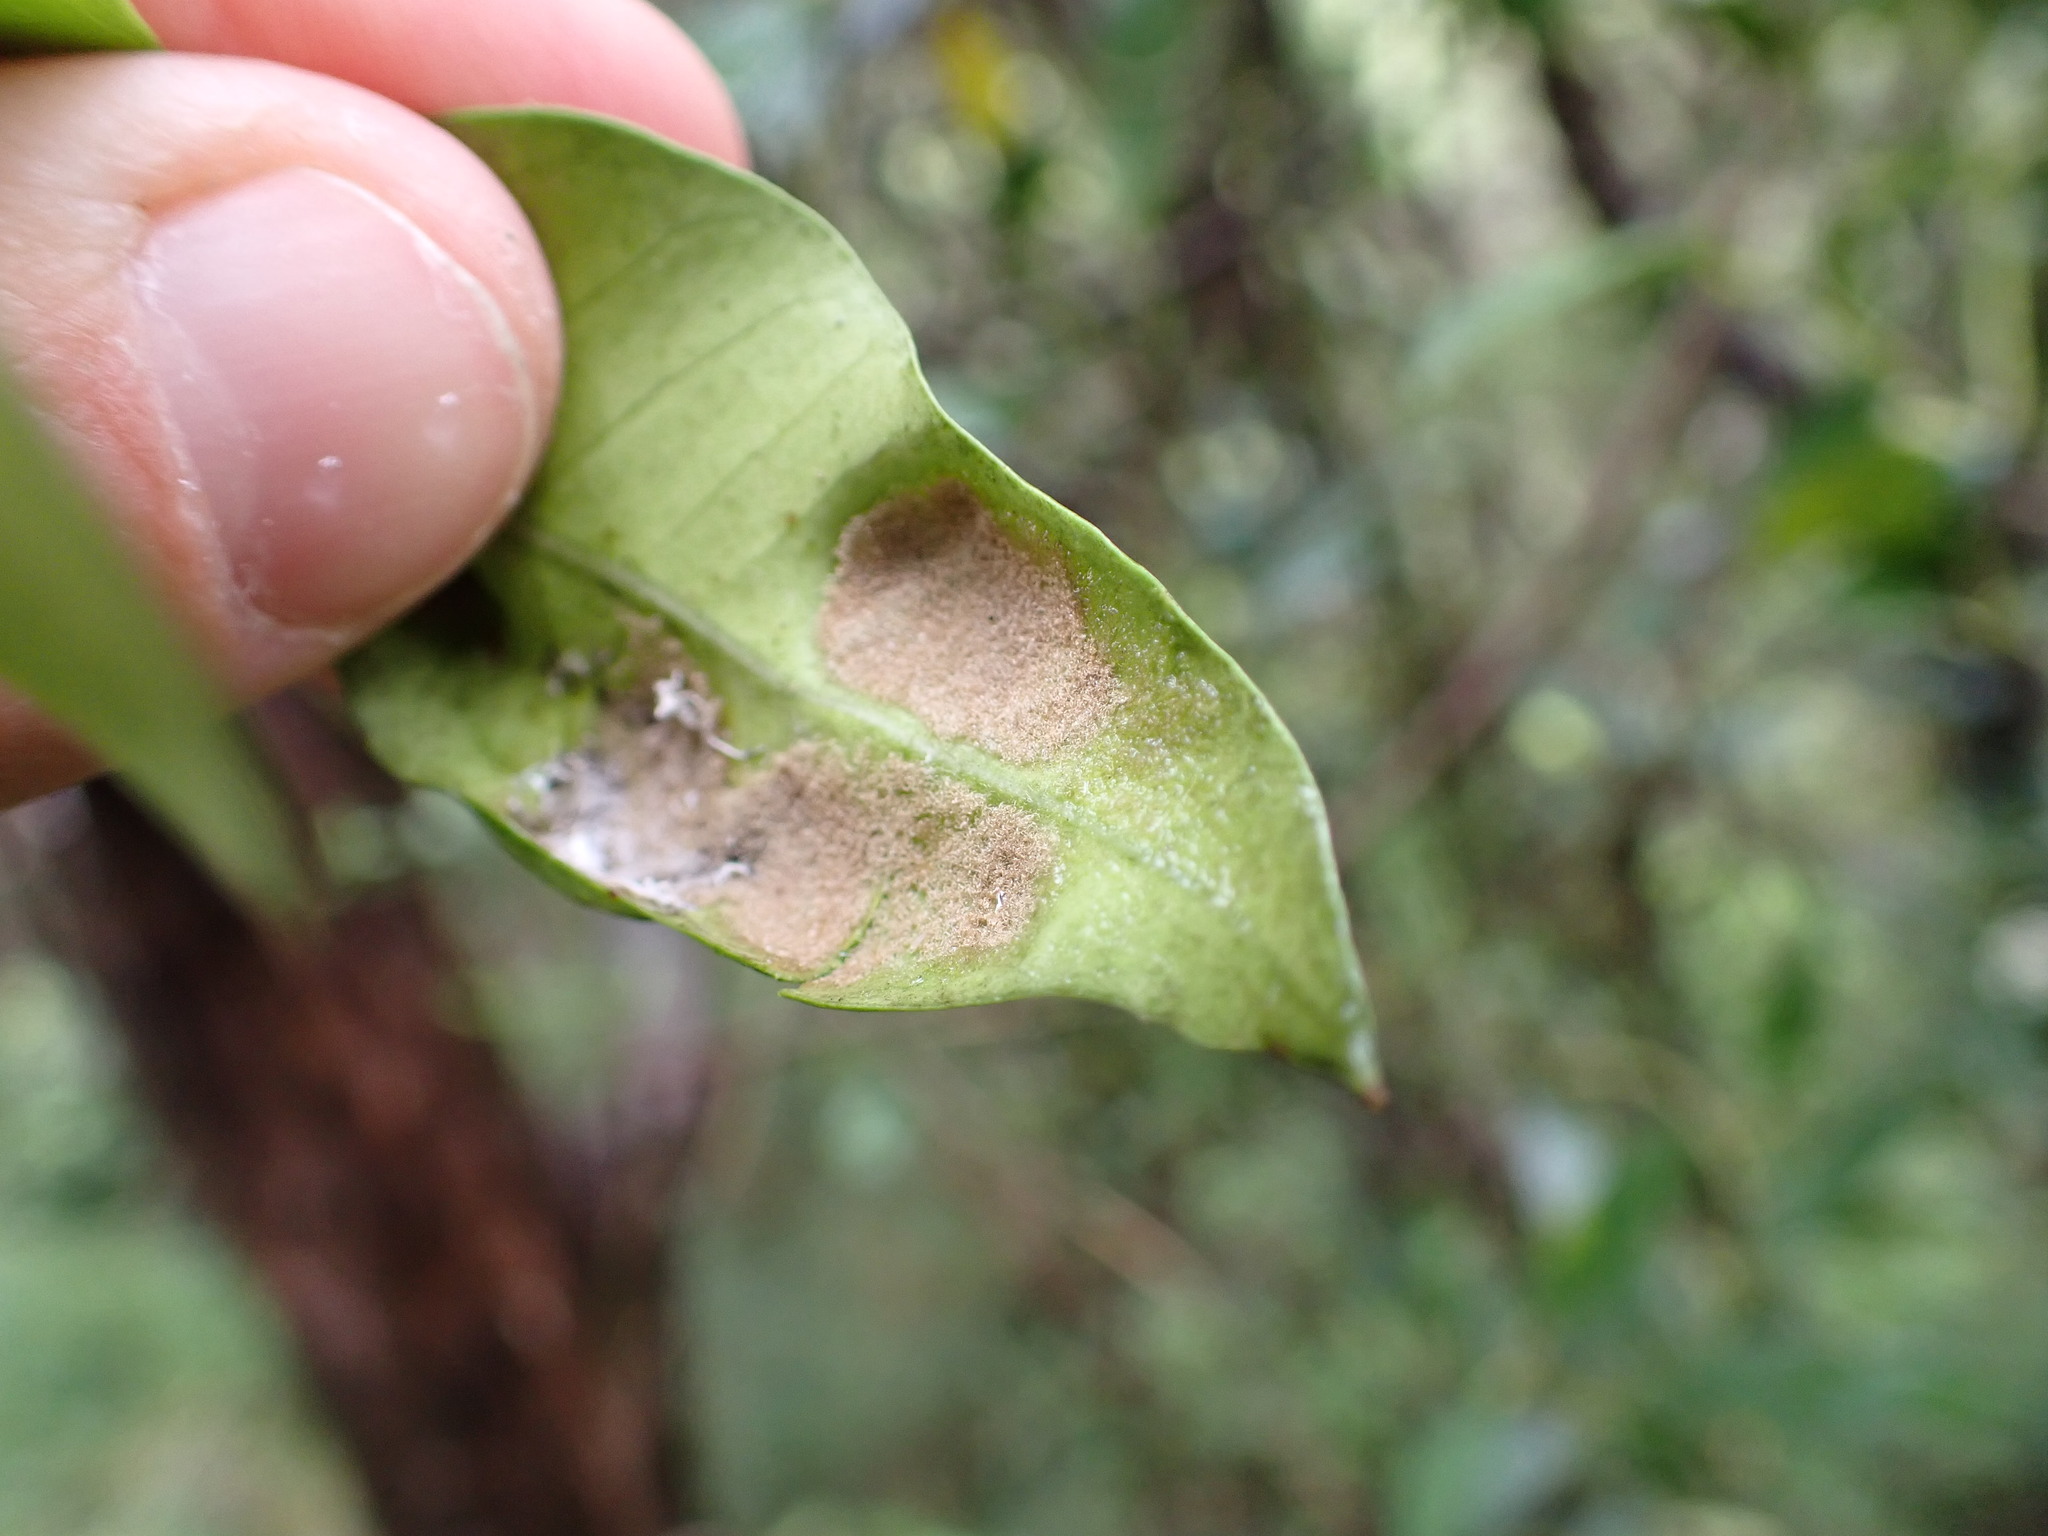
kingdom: Animalia
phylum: Arthropoda
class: Arachnida
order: Trombidiformes
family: Eriophyidae
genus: Eriophyes
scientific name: Eriophyes parsonsiae
